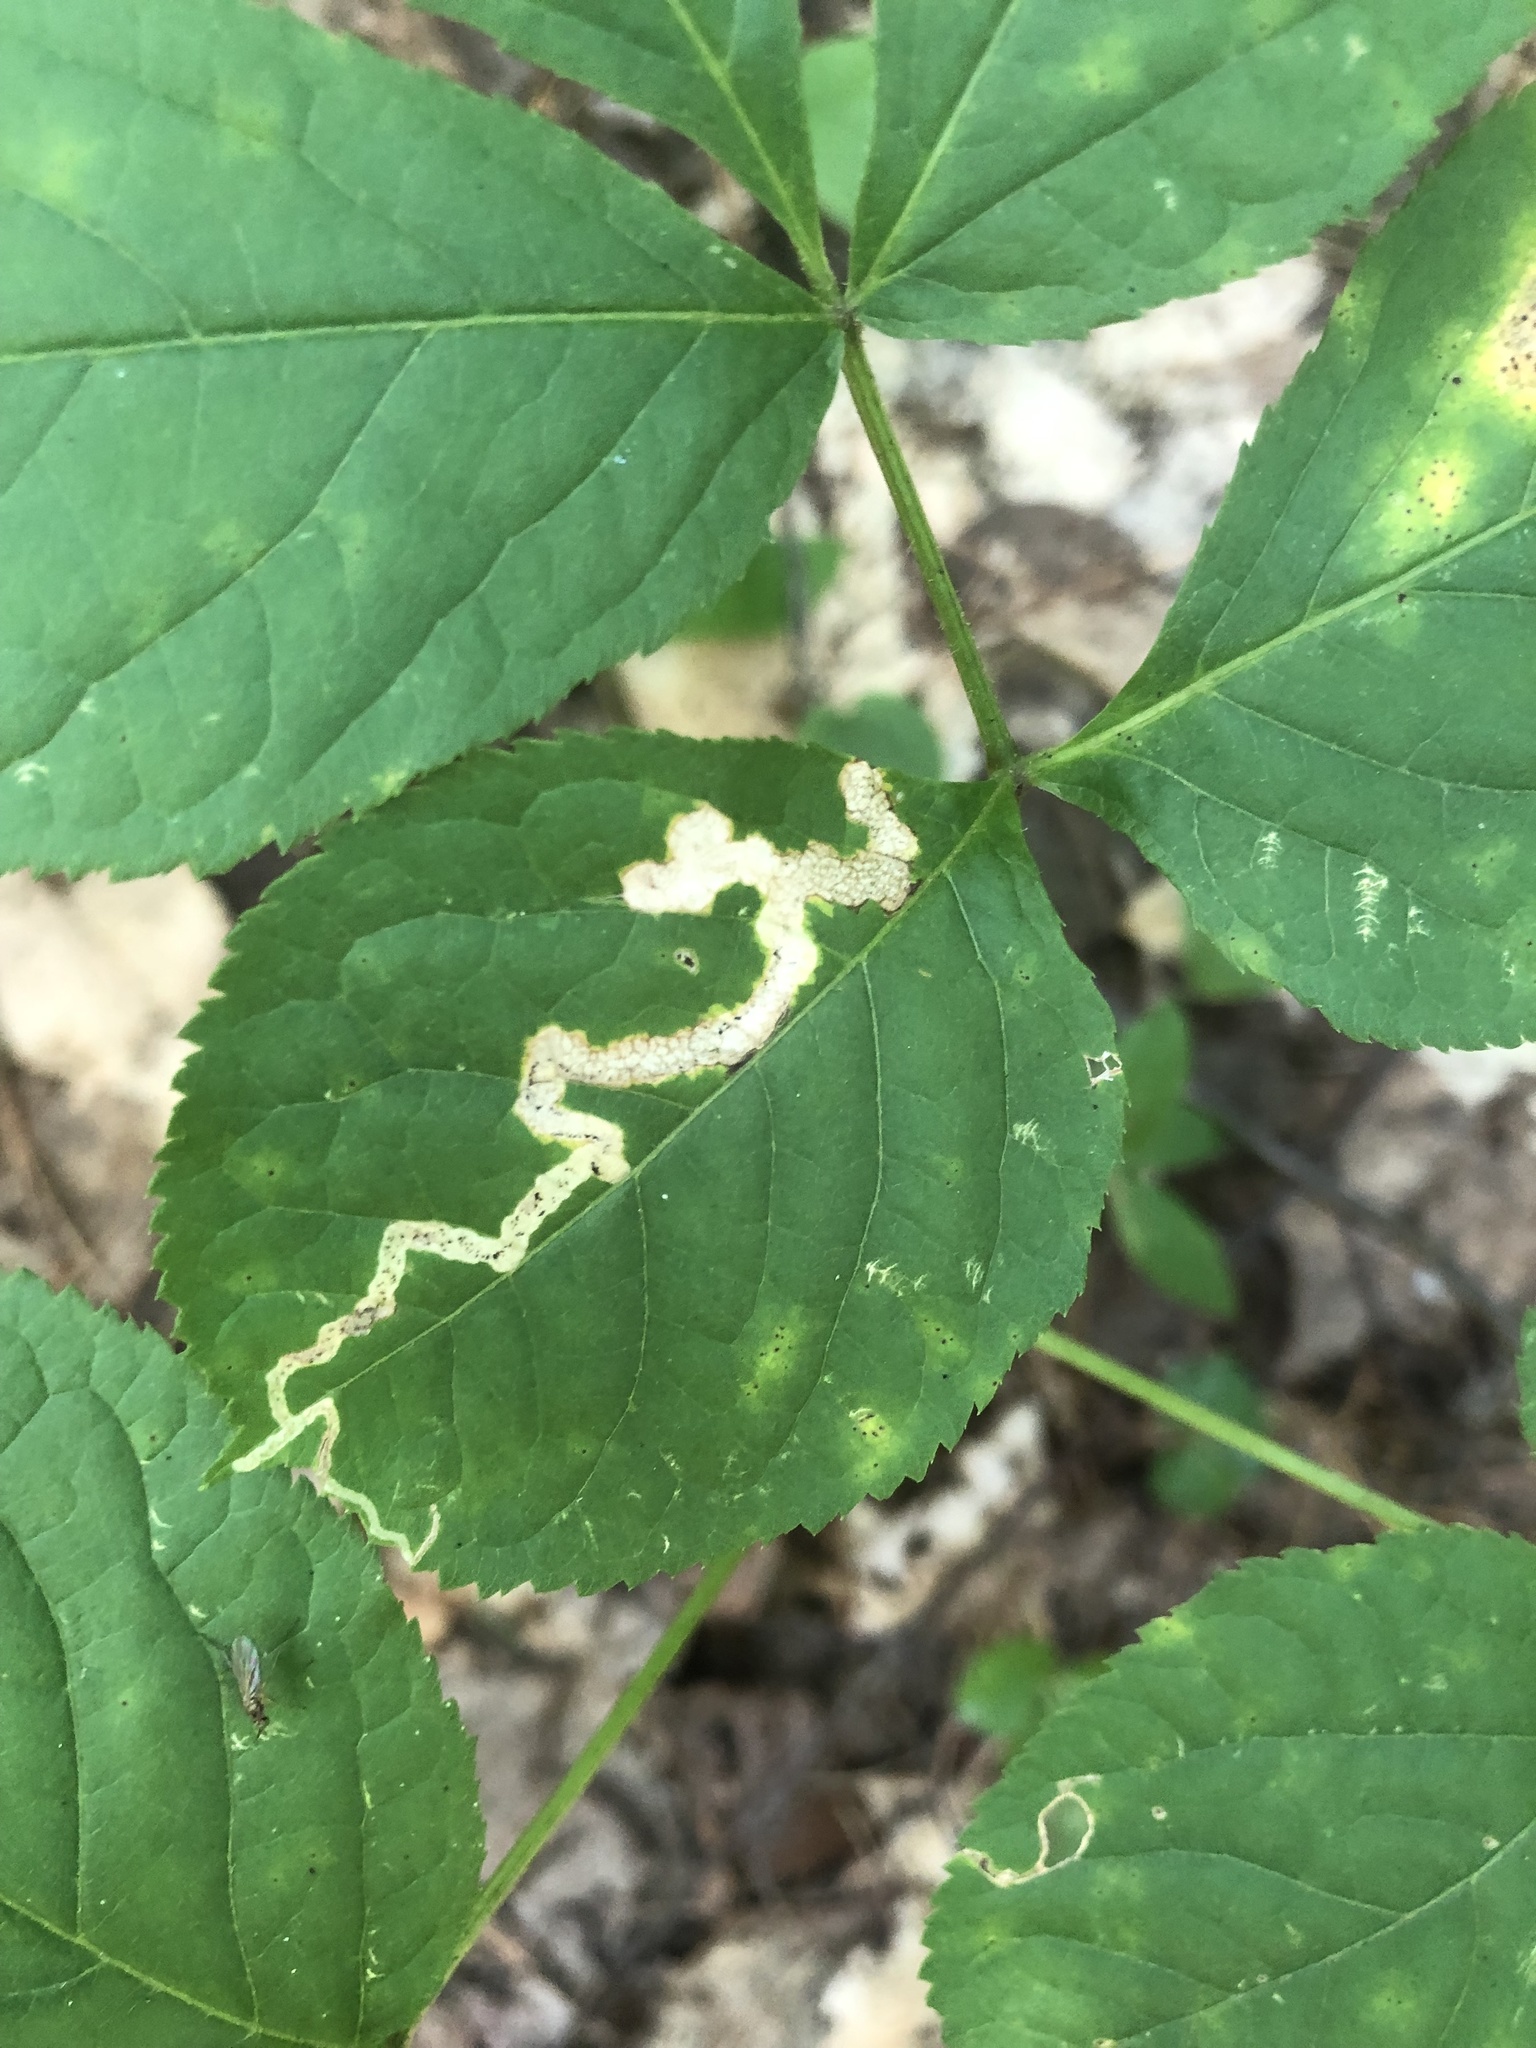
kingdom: Animalia
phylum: Arthropoda
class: Insecta
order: Diptera
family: Agromyzidae
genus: Phytomyza
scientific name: Phytomyza aralivora
